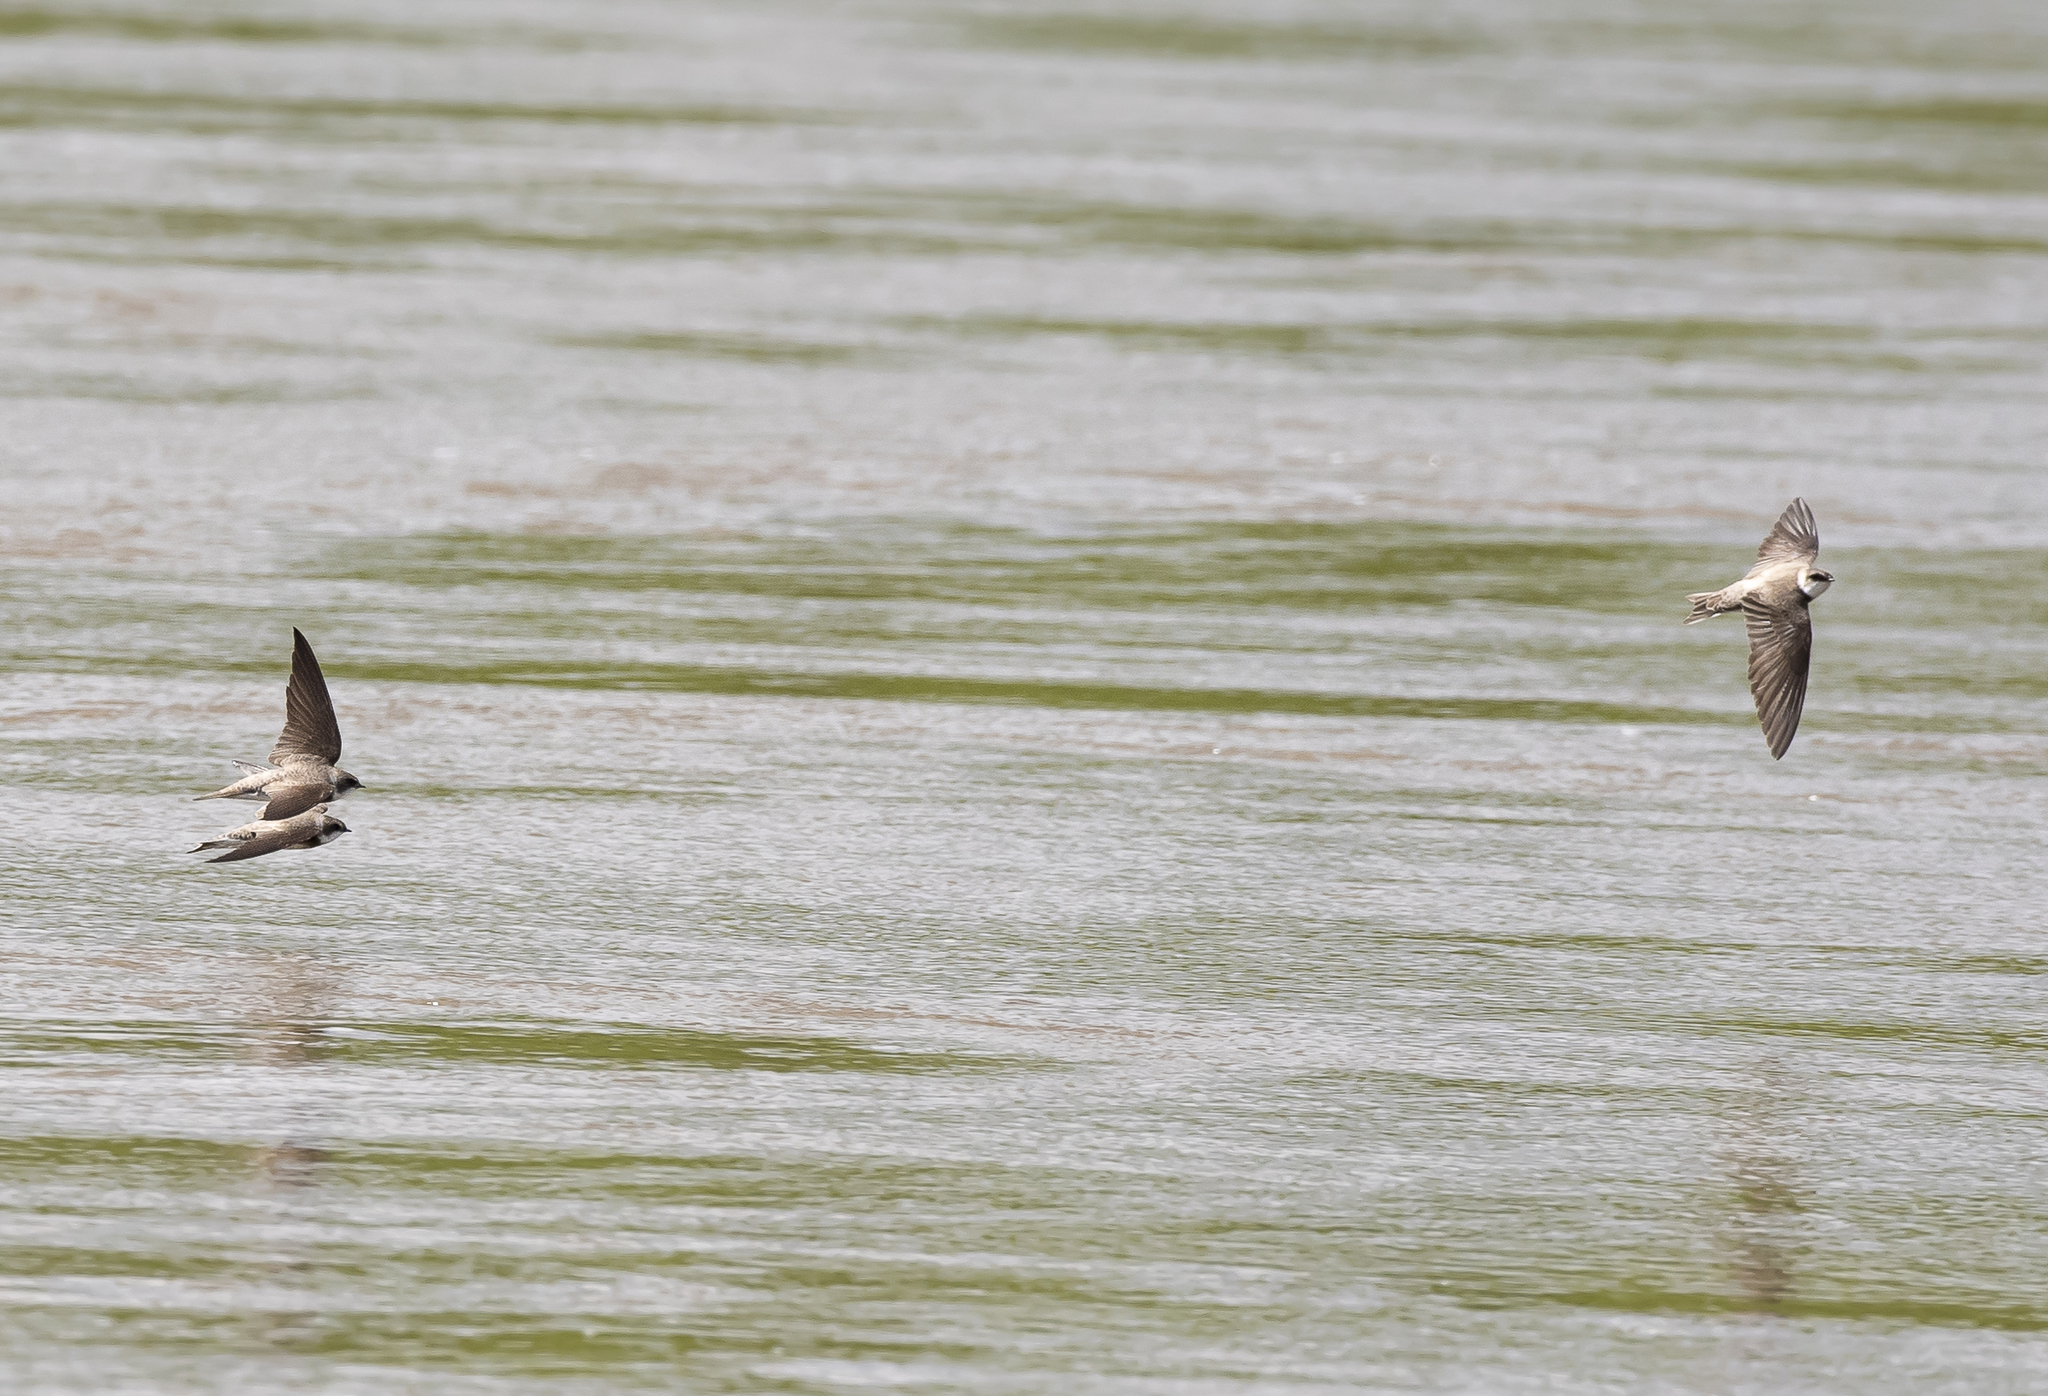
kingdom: Animalia
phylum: Chordata
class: Aves
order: Passeriformes
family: Hirundinidae
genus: Riparia
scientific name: Riparia riparia
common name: Sand martin
